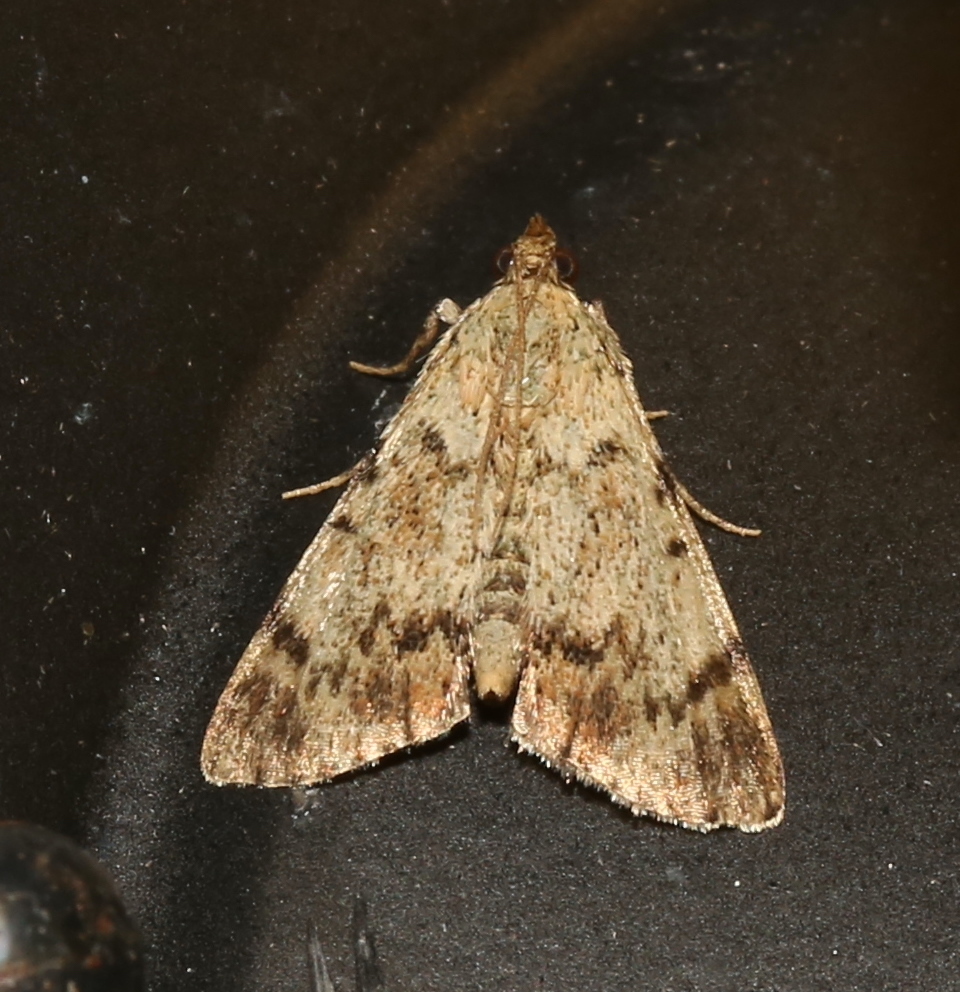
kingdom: Animalia
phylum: Arthropoda
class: Insecta
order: Lepidoptera
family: Pyralidae
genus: Epipaschia
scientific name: Epipaschia superatalis
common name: Dimorphic macalla moth
